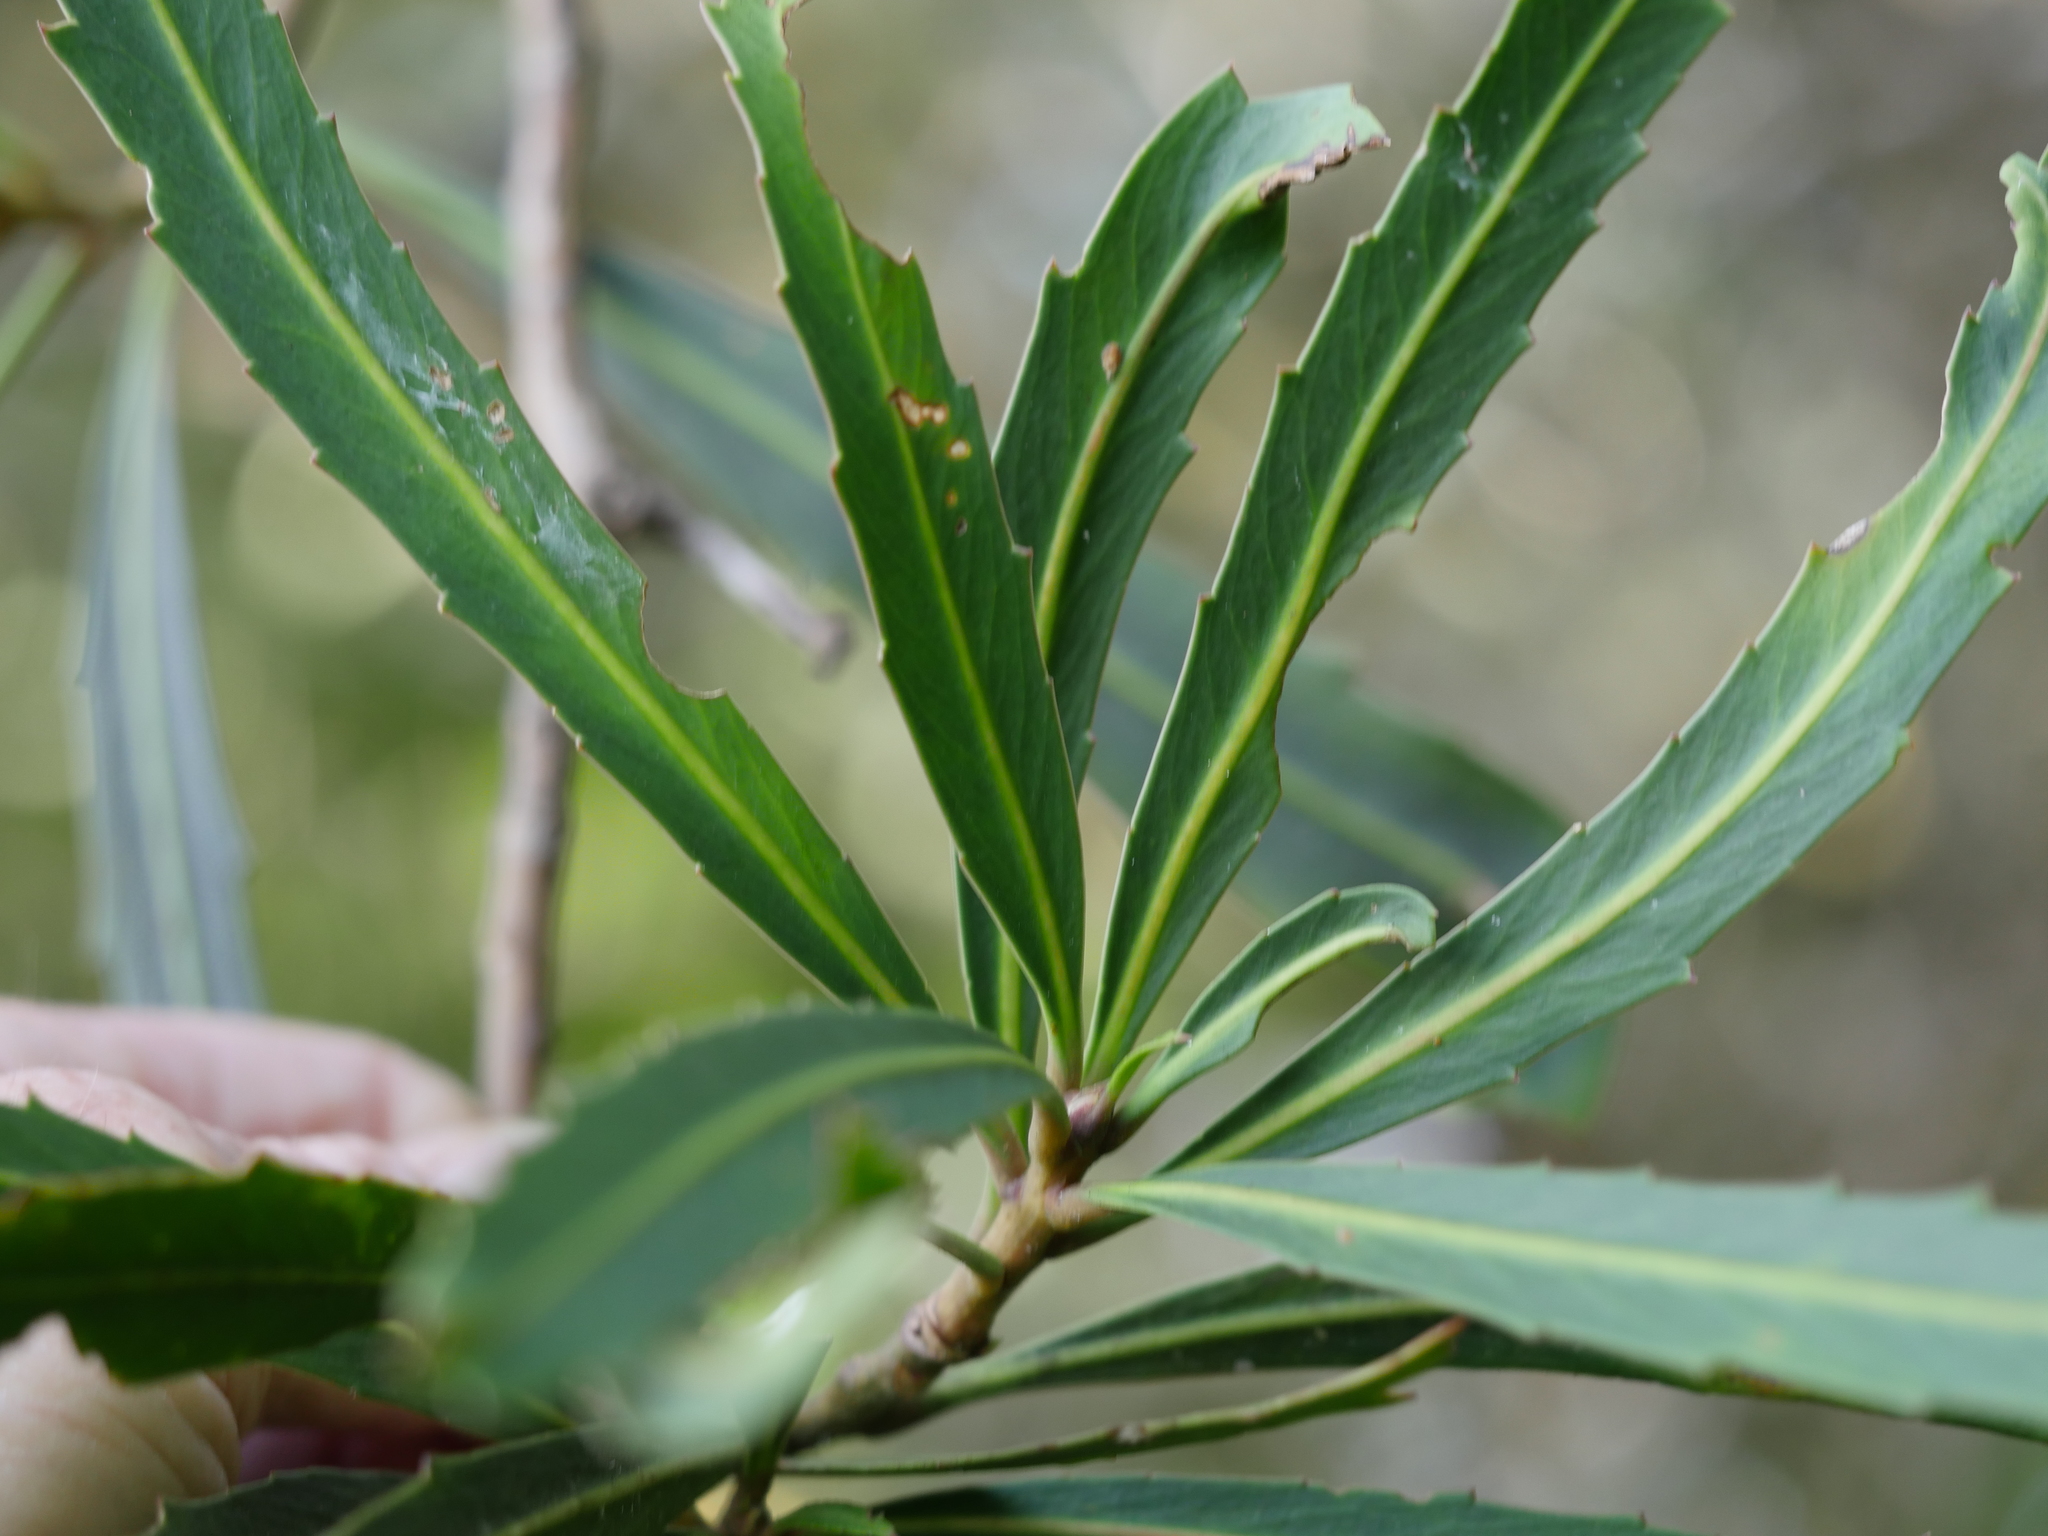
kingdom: Plantae
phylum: Tracheophyta
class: Magnoliopsida
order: Apiales
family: Araliaceae
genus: Pseudopanax
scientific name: Pseudopanax crassifolius
